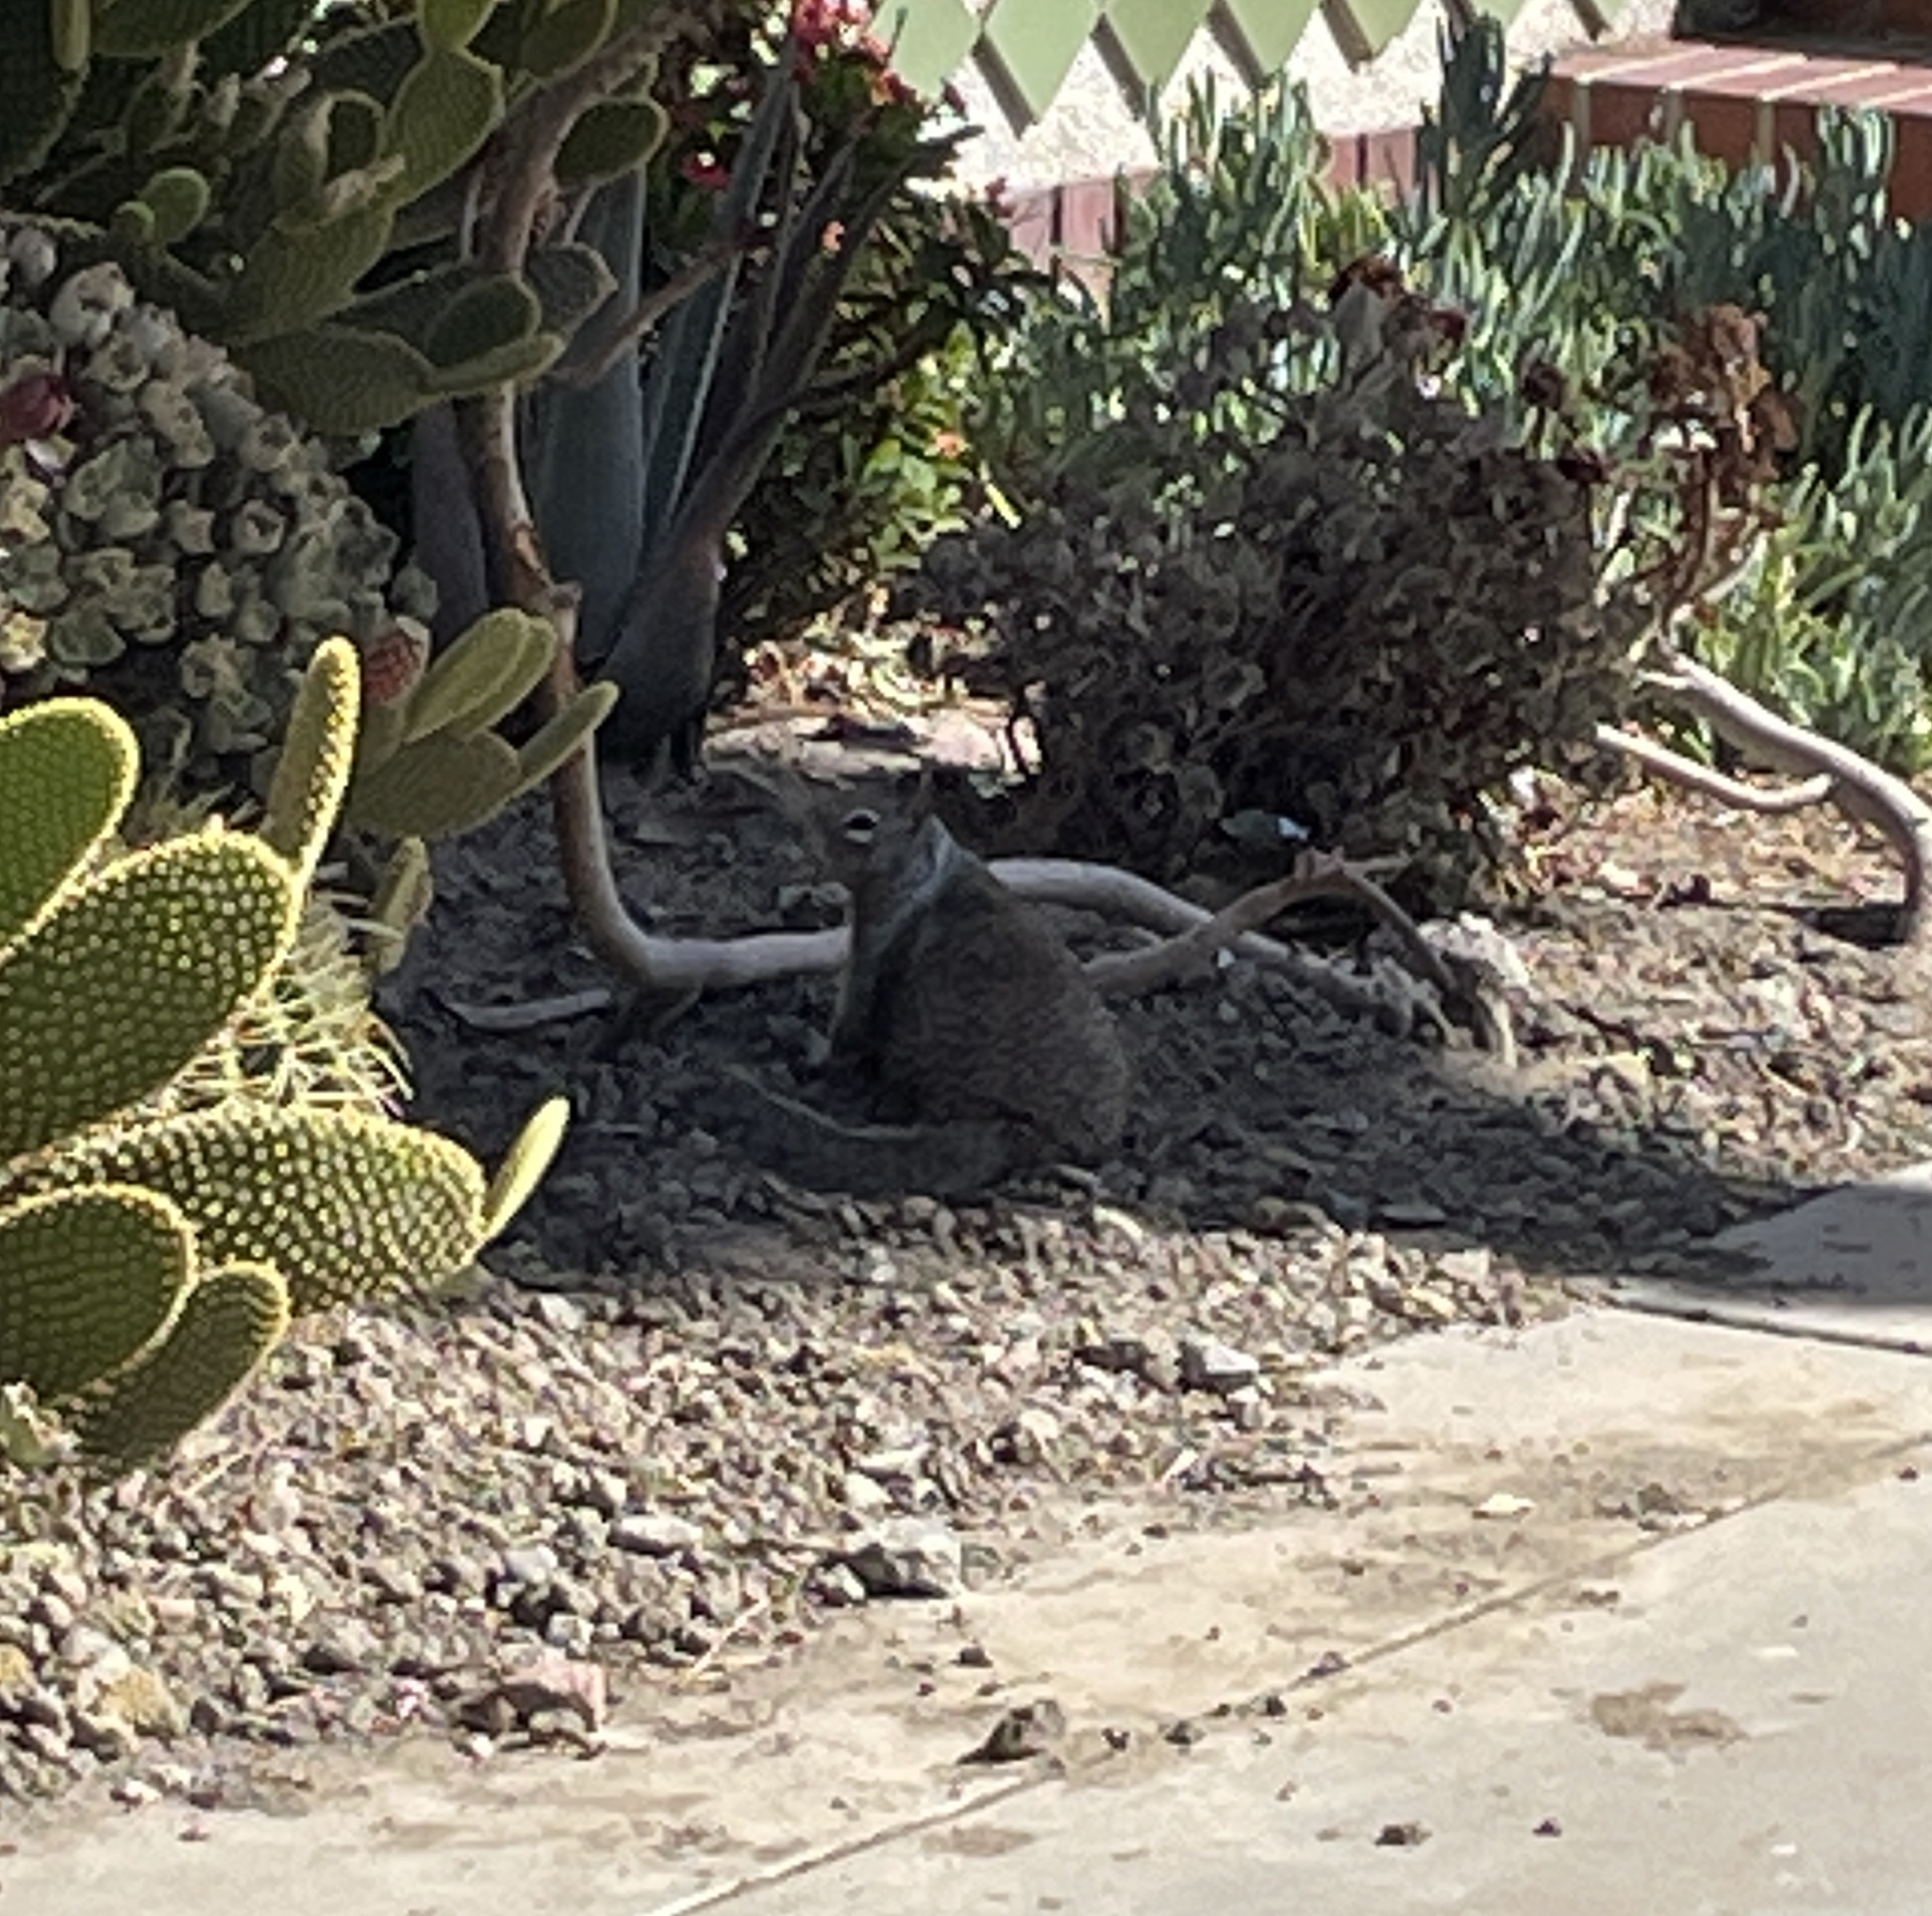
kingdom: Animalia
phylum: Chordata
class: Mammalia
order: Rodentia
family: Sciuridae
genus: Otospermophilus
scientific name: Otospermophilus beecheyi
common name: California ground squirrel
